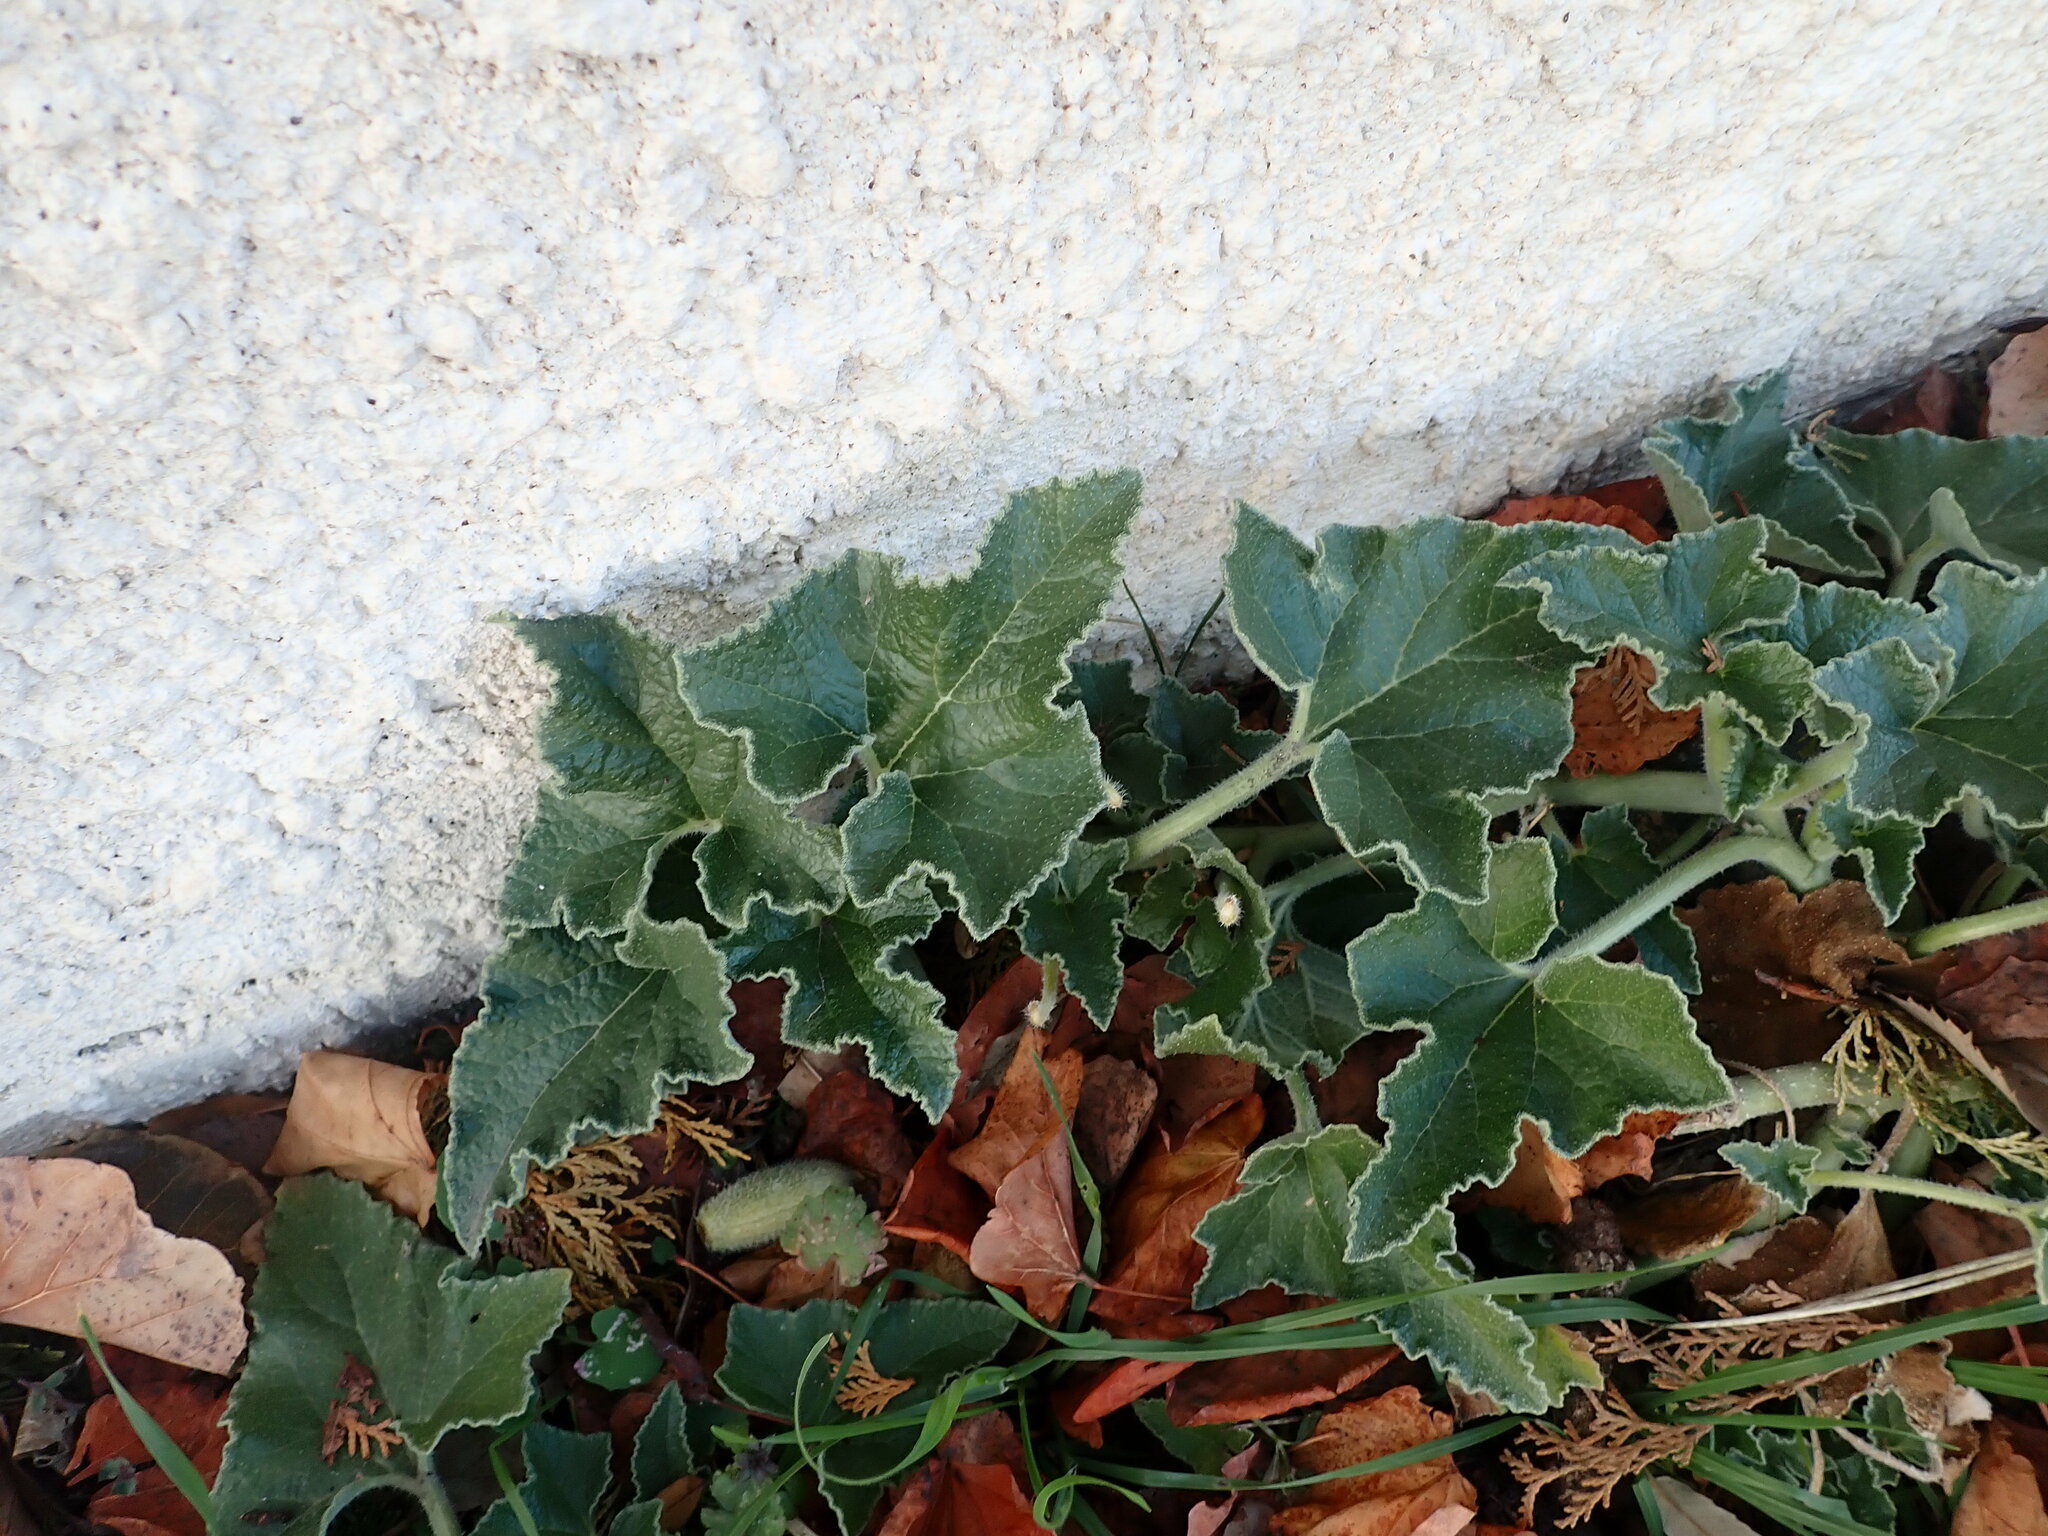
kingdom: Plantae
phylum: Tracheophyta
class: Magnoliopsida
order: Cucurbitales
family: Cucurbitaceae
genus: Ecballium
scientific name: Ecballium elaterium
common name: Squirting cucumber
